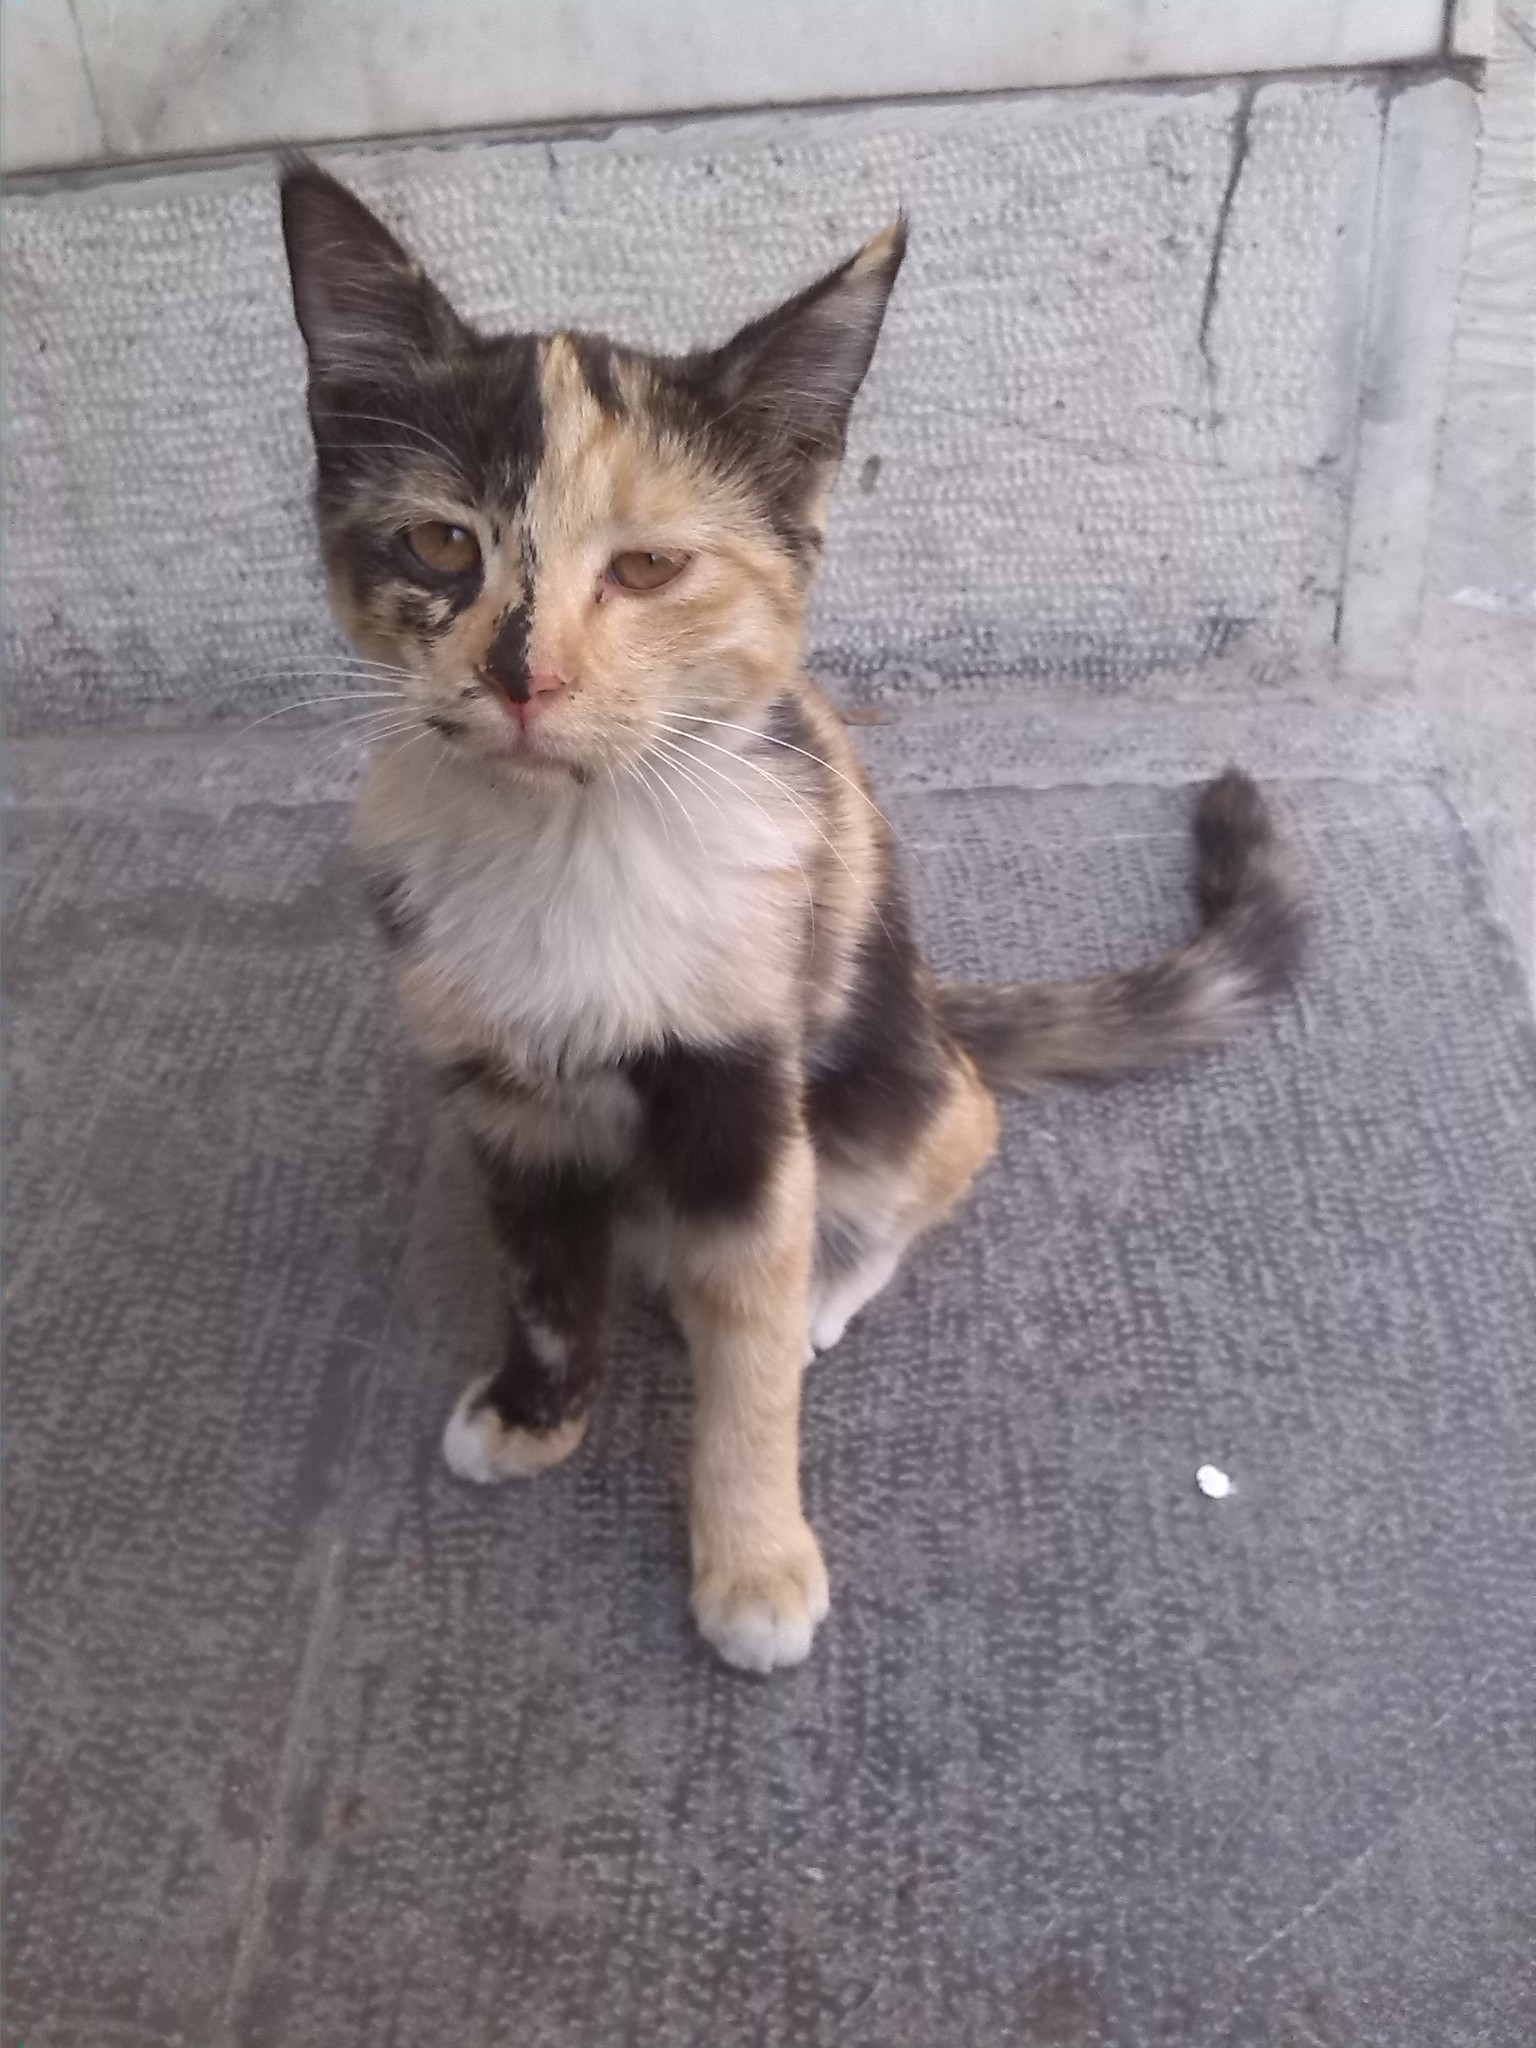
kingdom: Animalia
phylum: Chordata
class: Mammalia
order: Carnivora
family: Felidae
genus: Felis
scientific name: Felis catus
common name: Domestic cat
